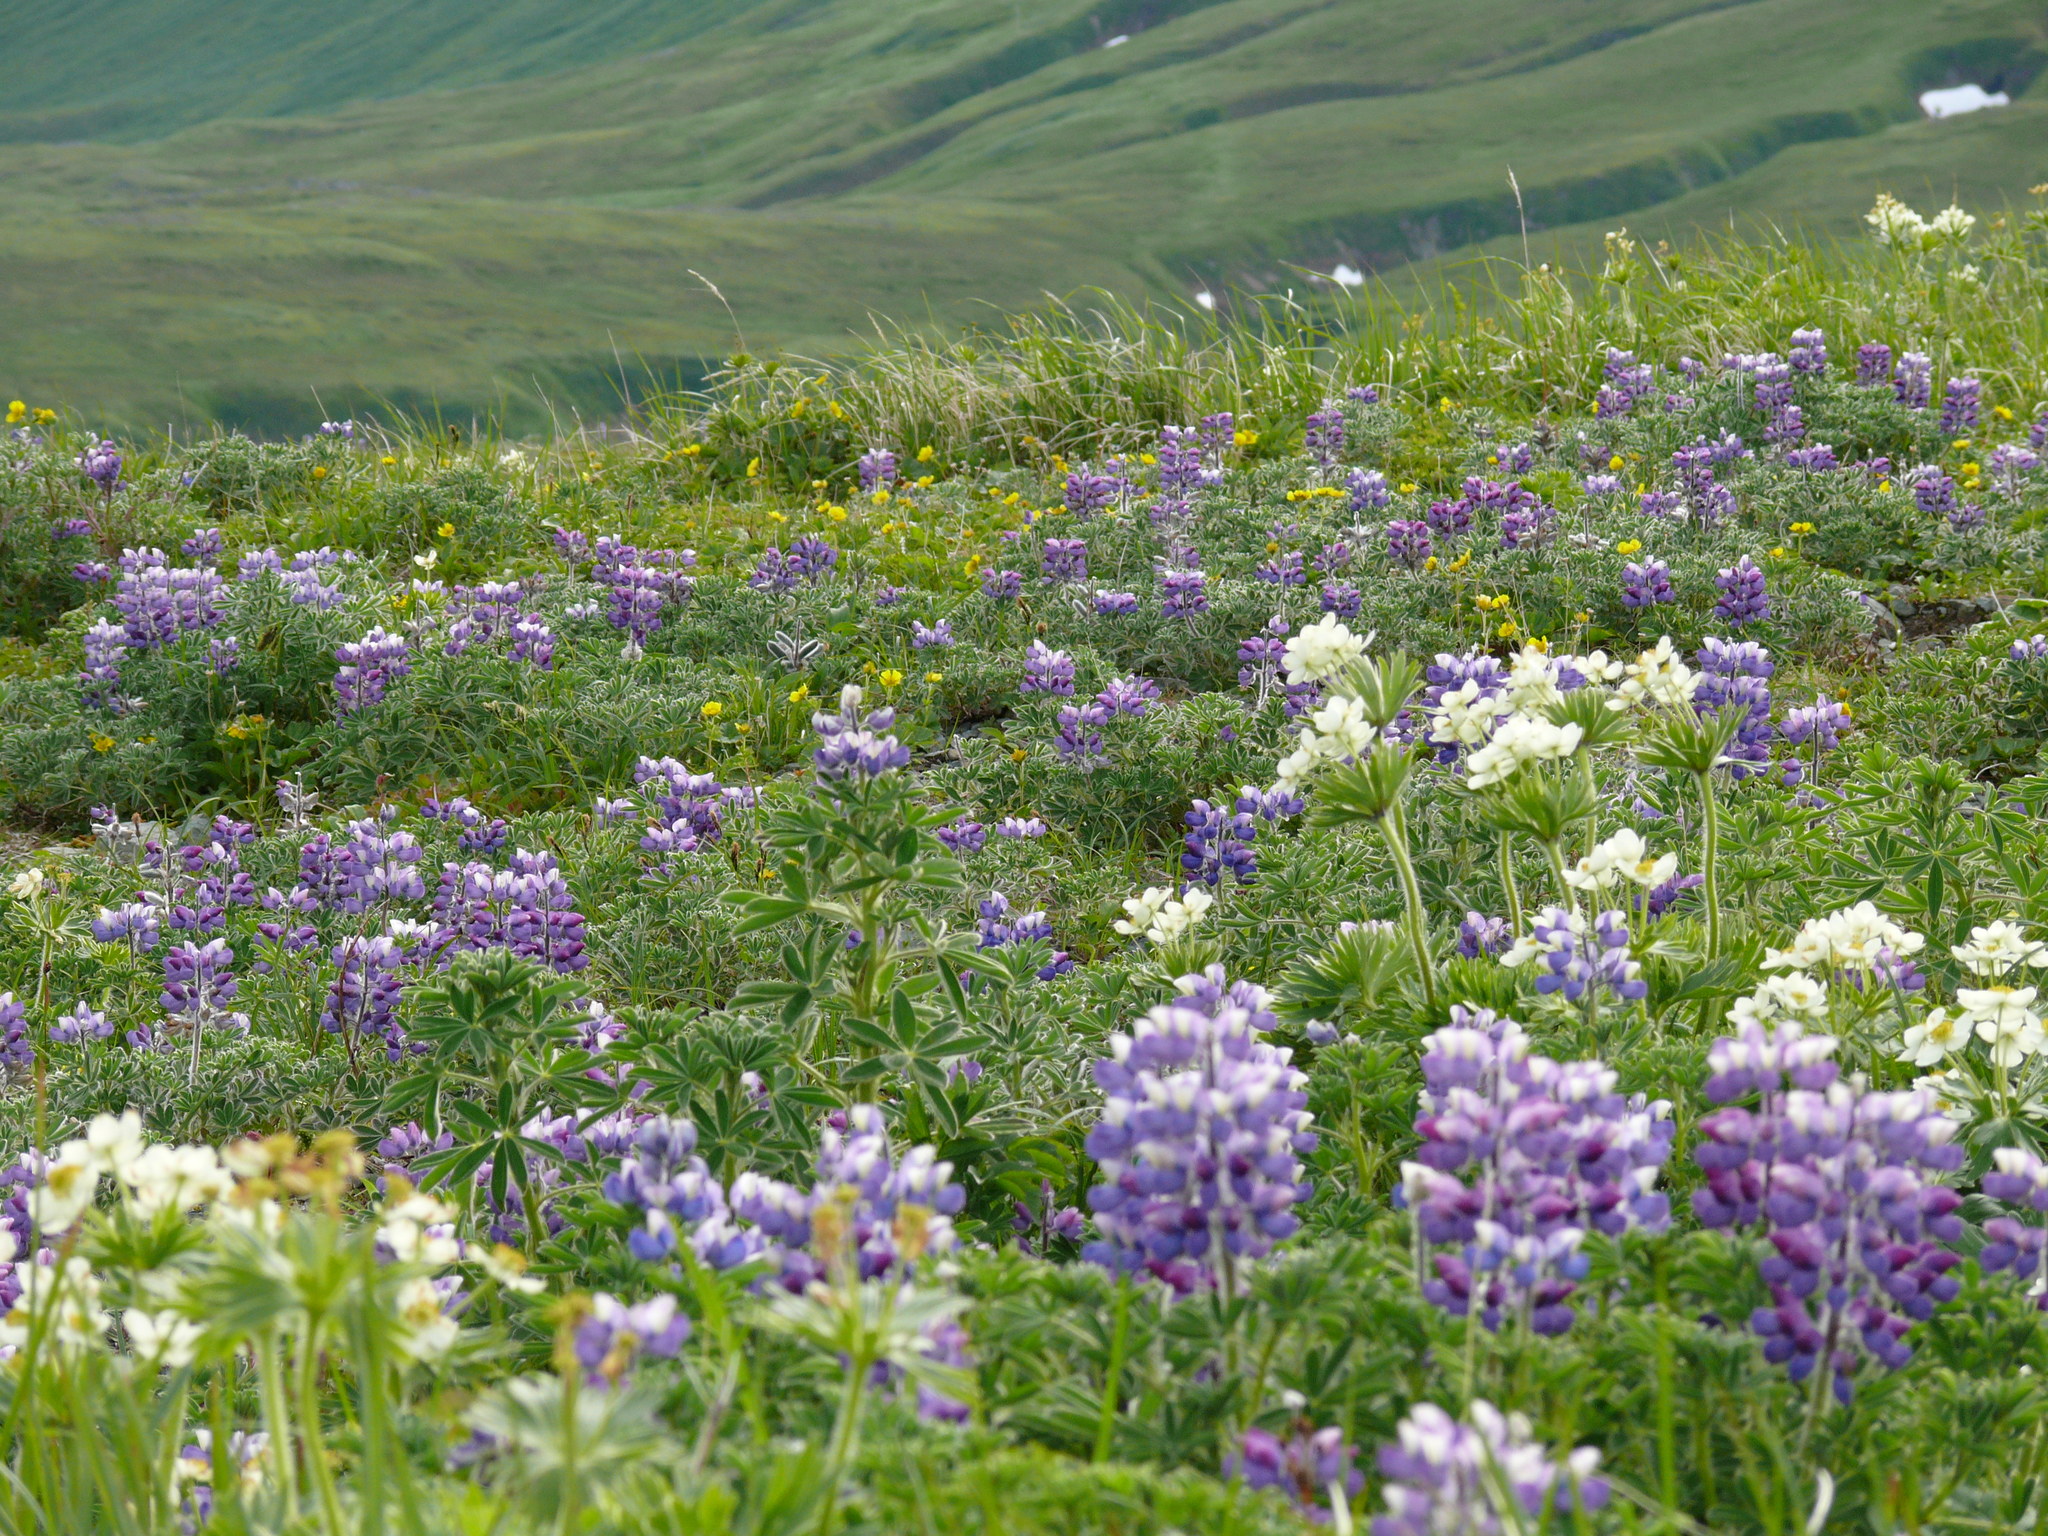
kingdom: Plantae
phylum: Tracheophyta
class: Magnoliopsida
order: Fabales
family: Fabaceae
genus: Lupinus
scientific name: Lupinus nootkatensis
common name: Nootka lupine
